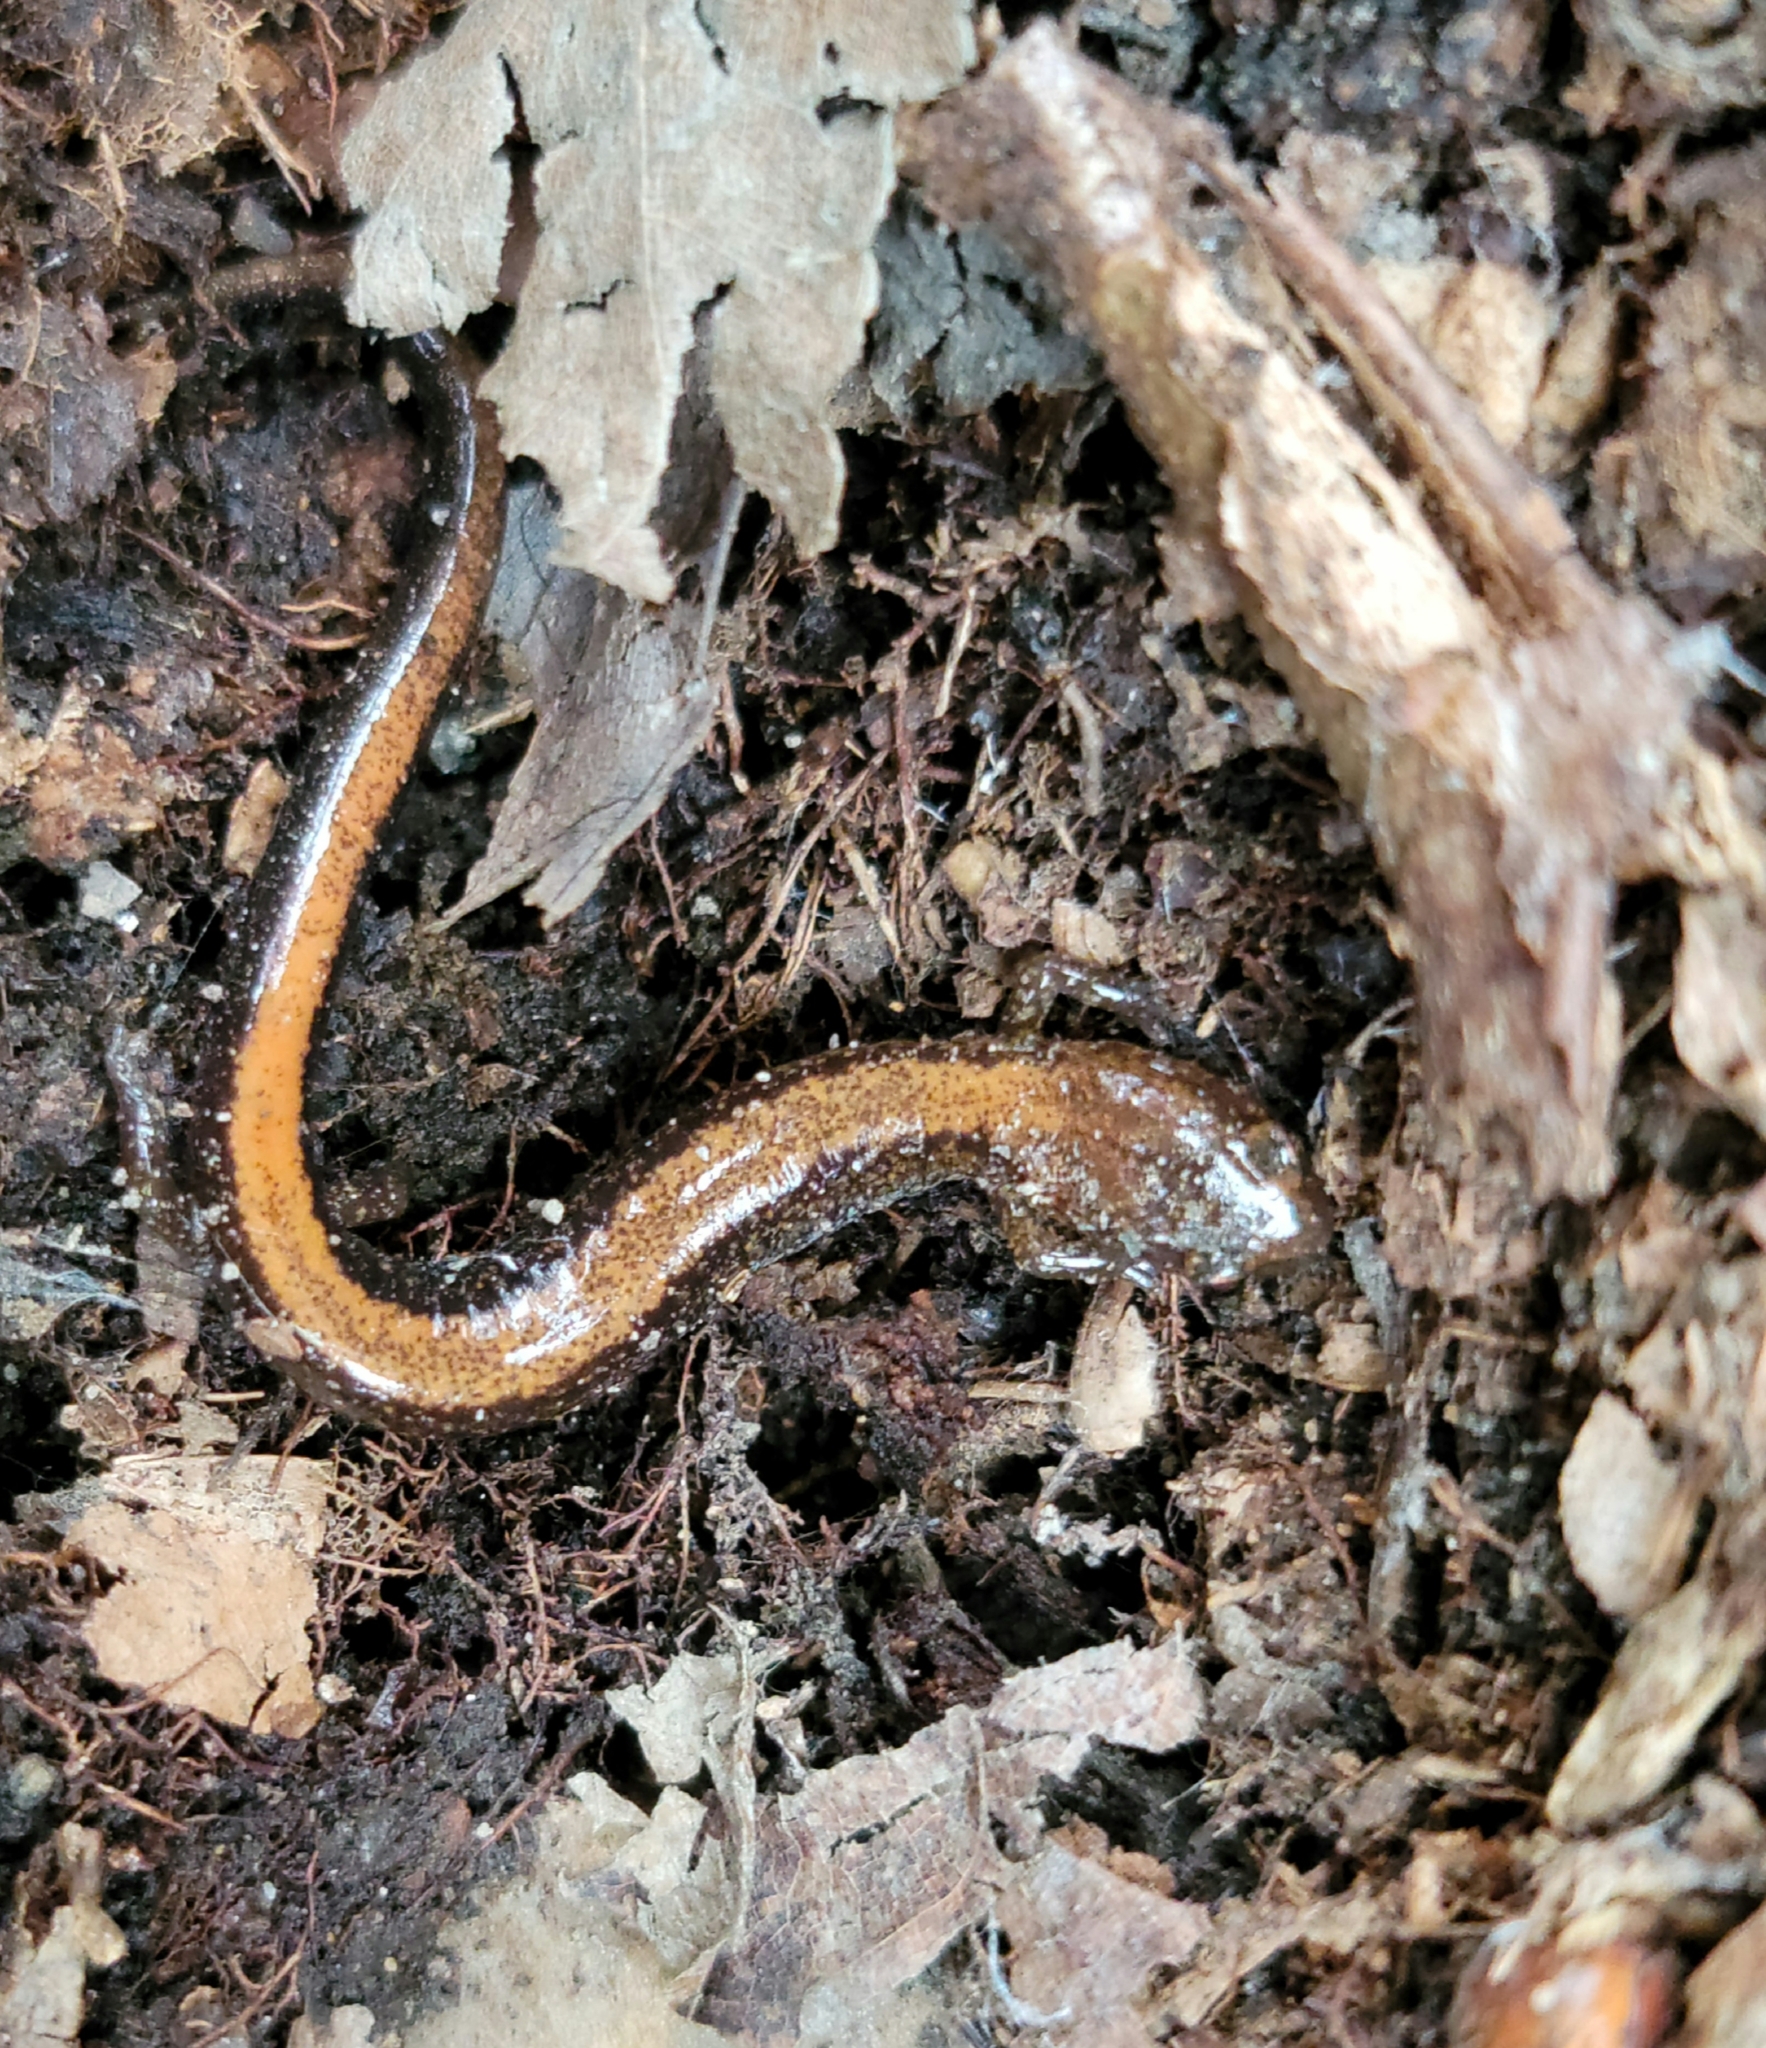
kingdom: Animalia
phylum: Chordata
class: Amphibia
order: Caudata
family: Plethodontidae
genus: Plethodon
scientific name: Plethodon cinereus
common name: Redback salamander
